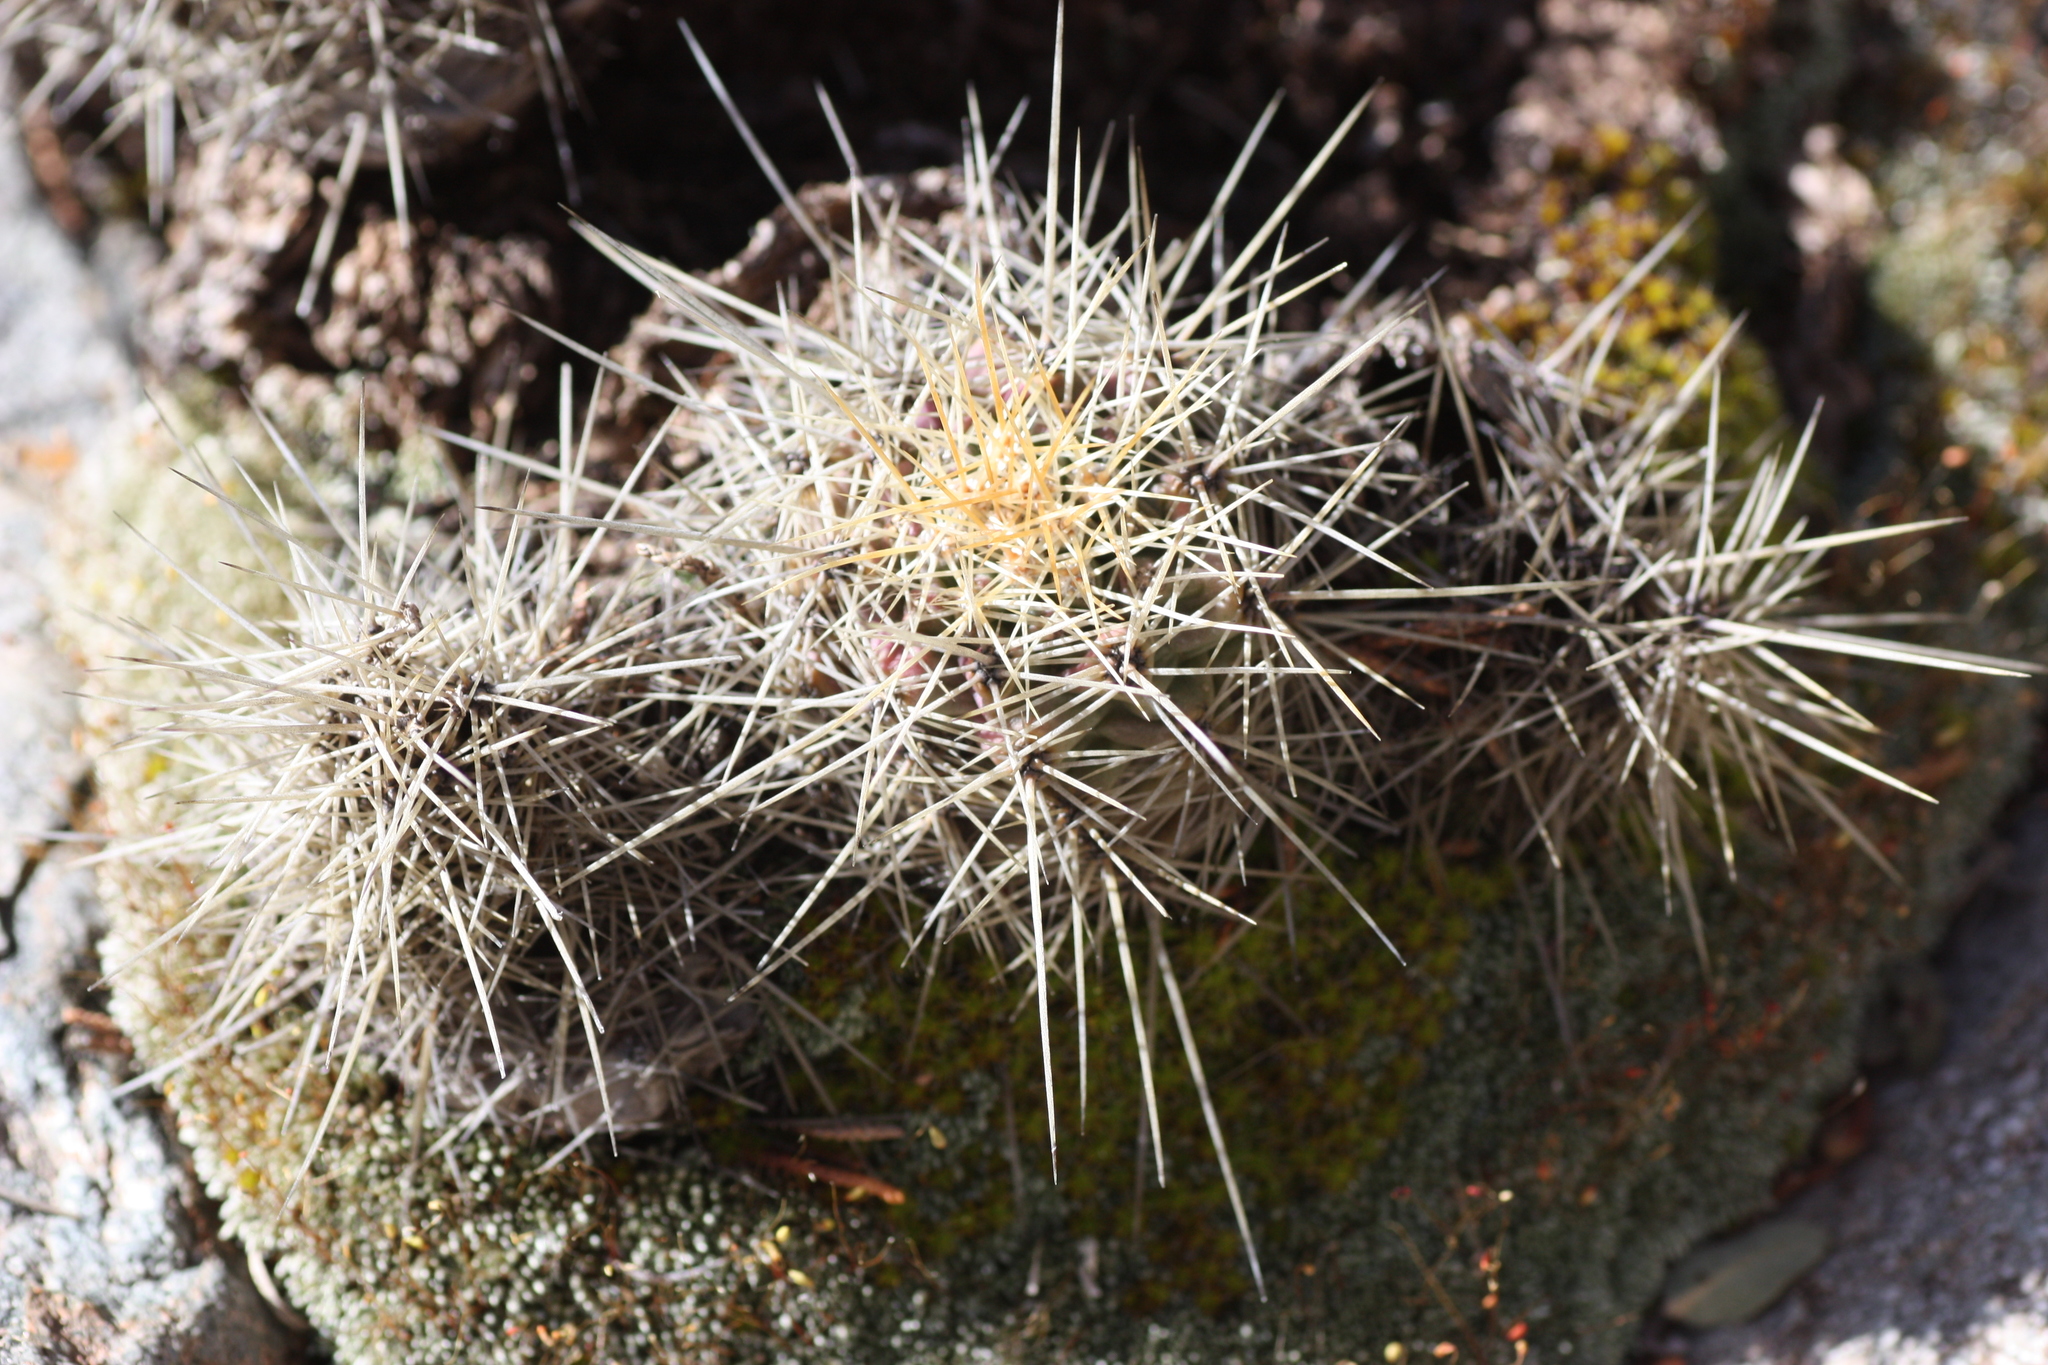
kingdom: Plantae
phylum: Tracheophyta
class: Magnoliopsida
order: Caryophyllales
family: Cactaceae
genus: Echinocereus
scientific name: Echinocereus coccineus
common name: Scarlet hedgehog cactus
